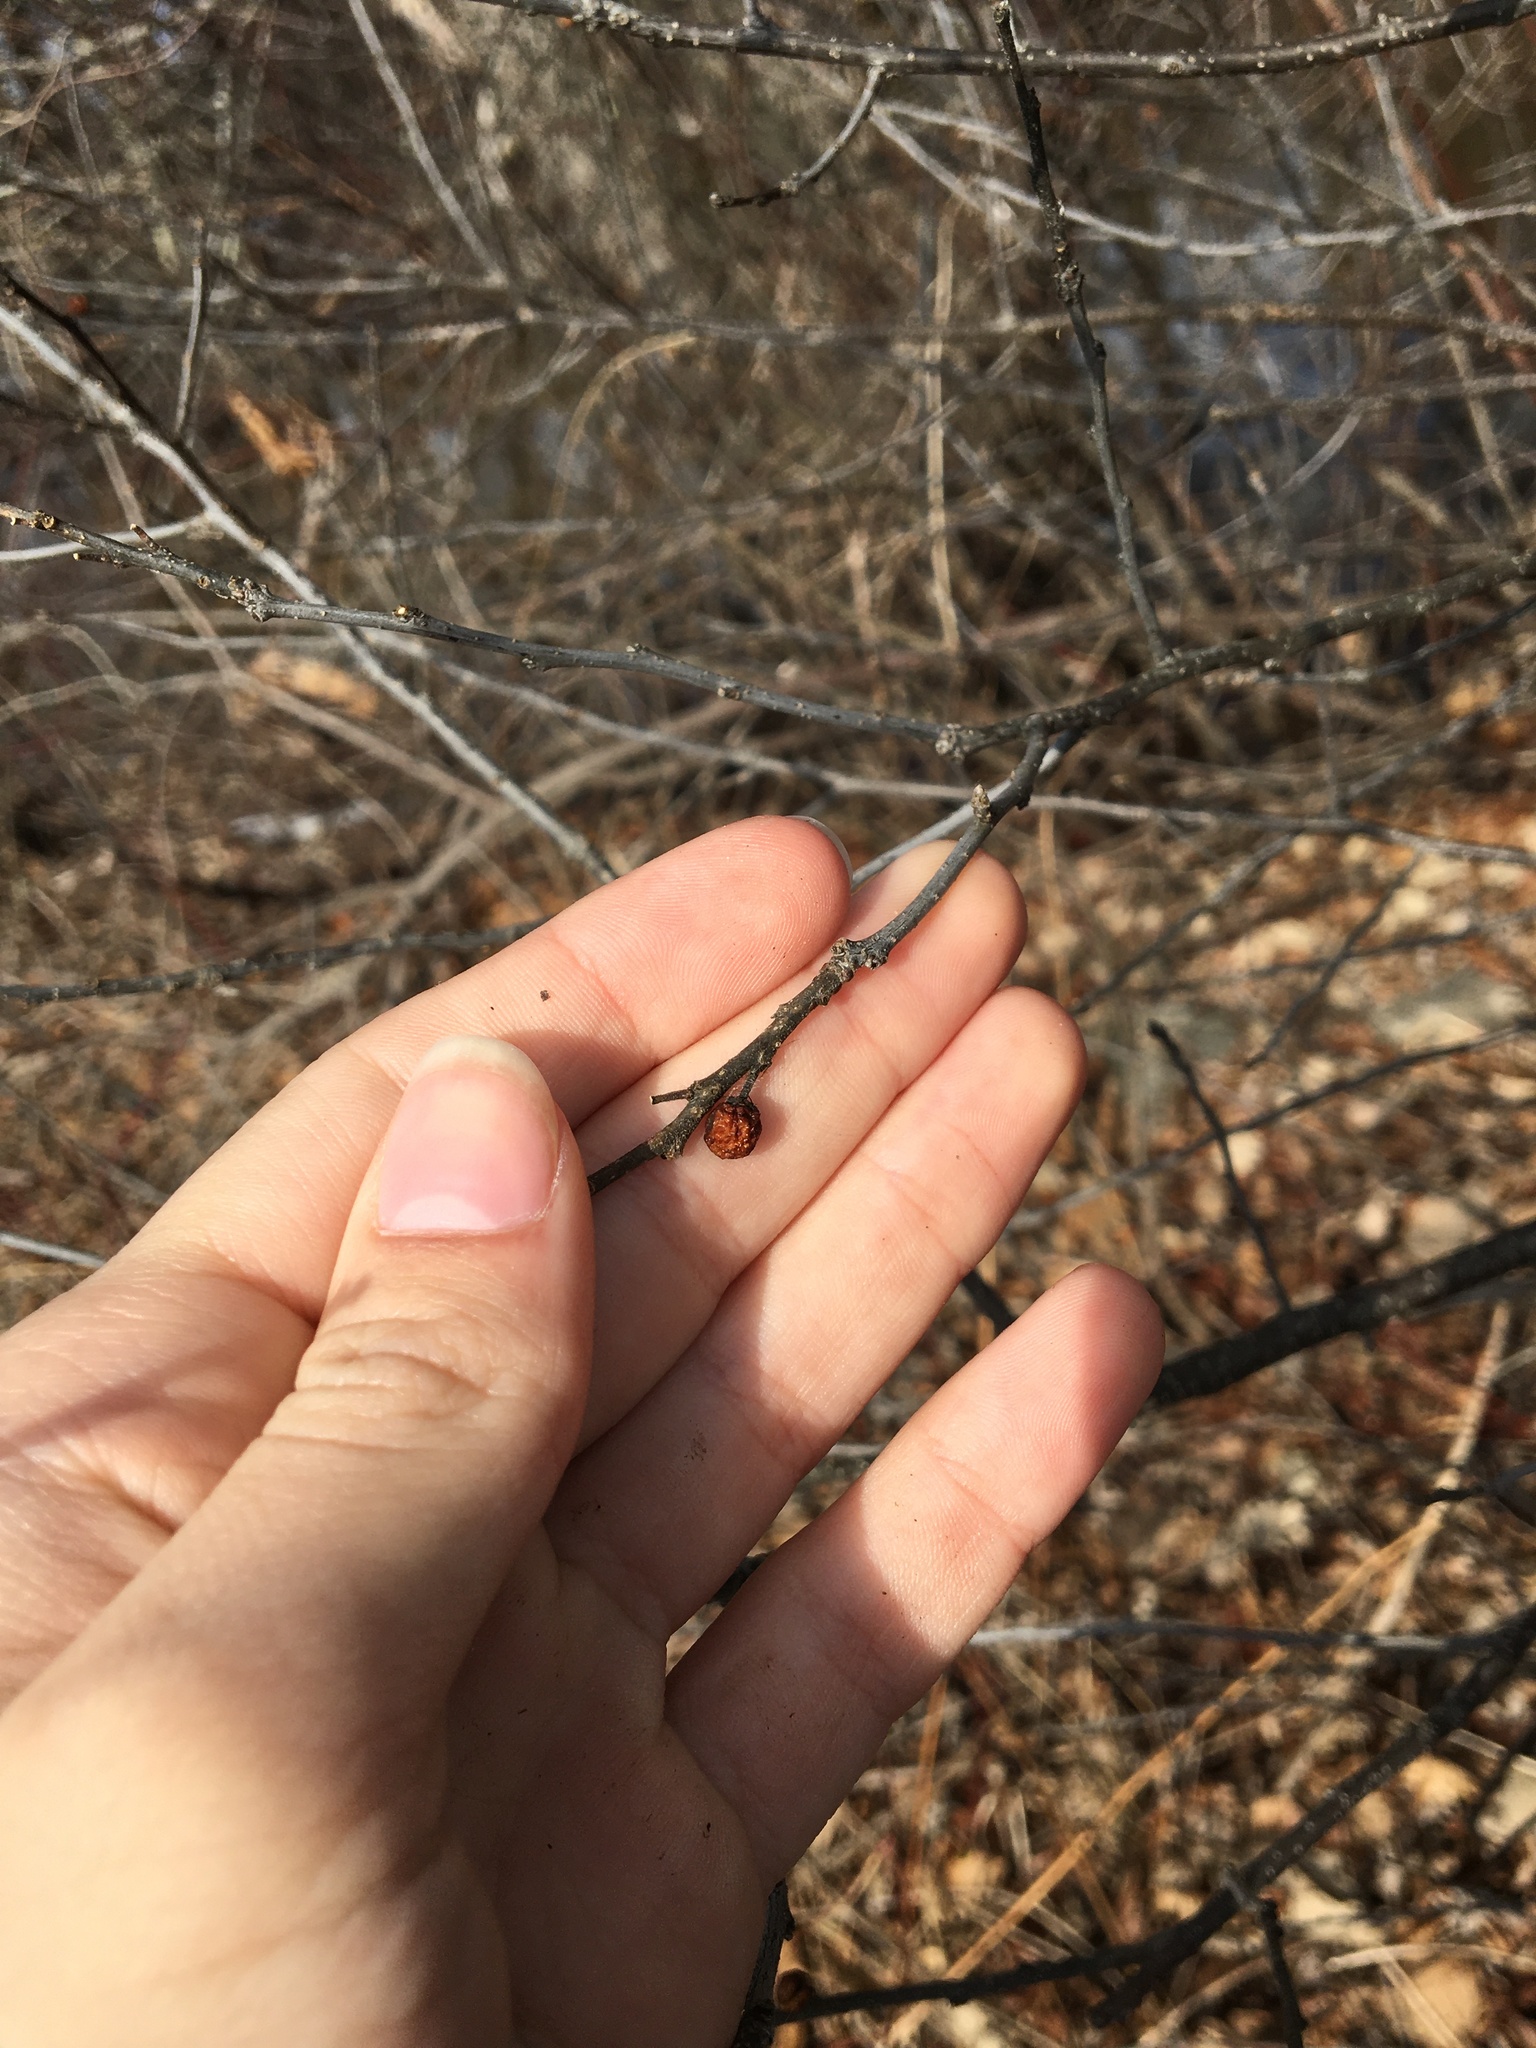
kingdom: Plantae
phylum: Tracheophyta
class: Magnoliopsida
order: Aquifoliales
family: Aquifoliaceae
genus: Ilex
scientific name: Ilex verticillata
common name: Virginia winterberry
